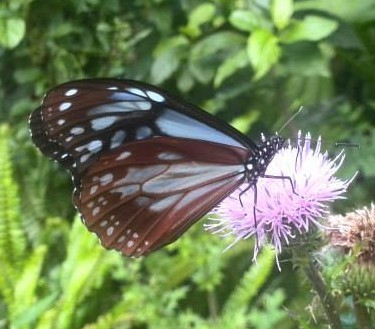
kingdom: Animalia
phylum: Arthropoda
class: Insecta
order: Lepidoptera
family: Nymphalidae
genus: Parantica
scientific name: Parantica sita
